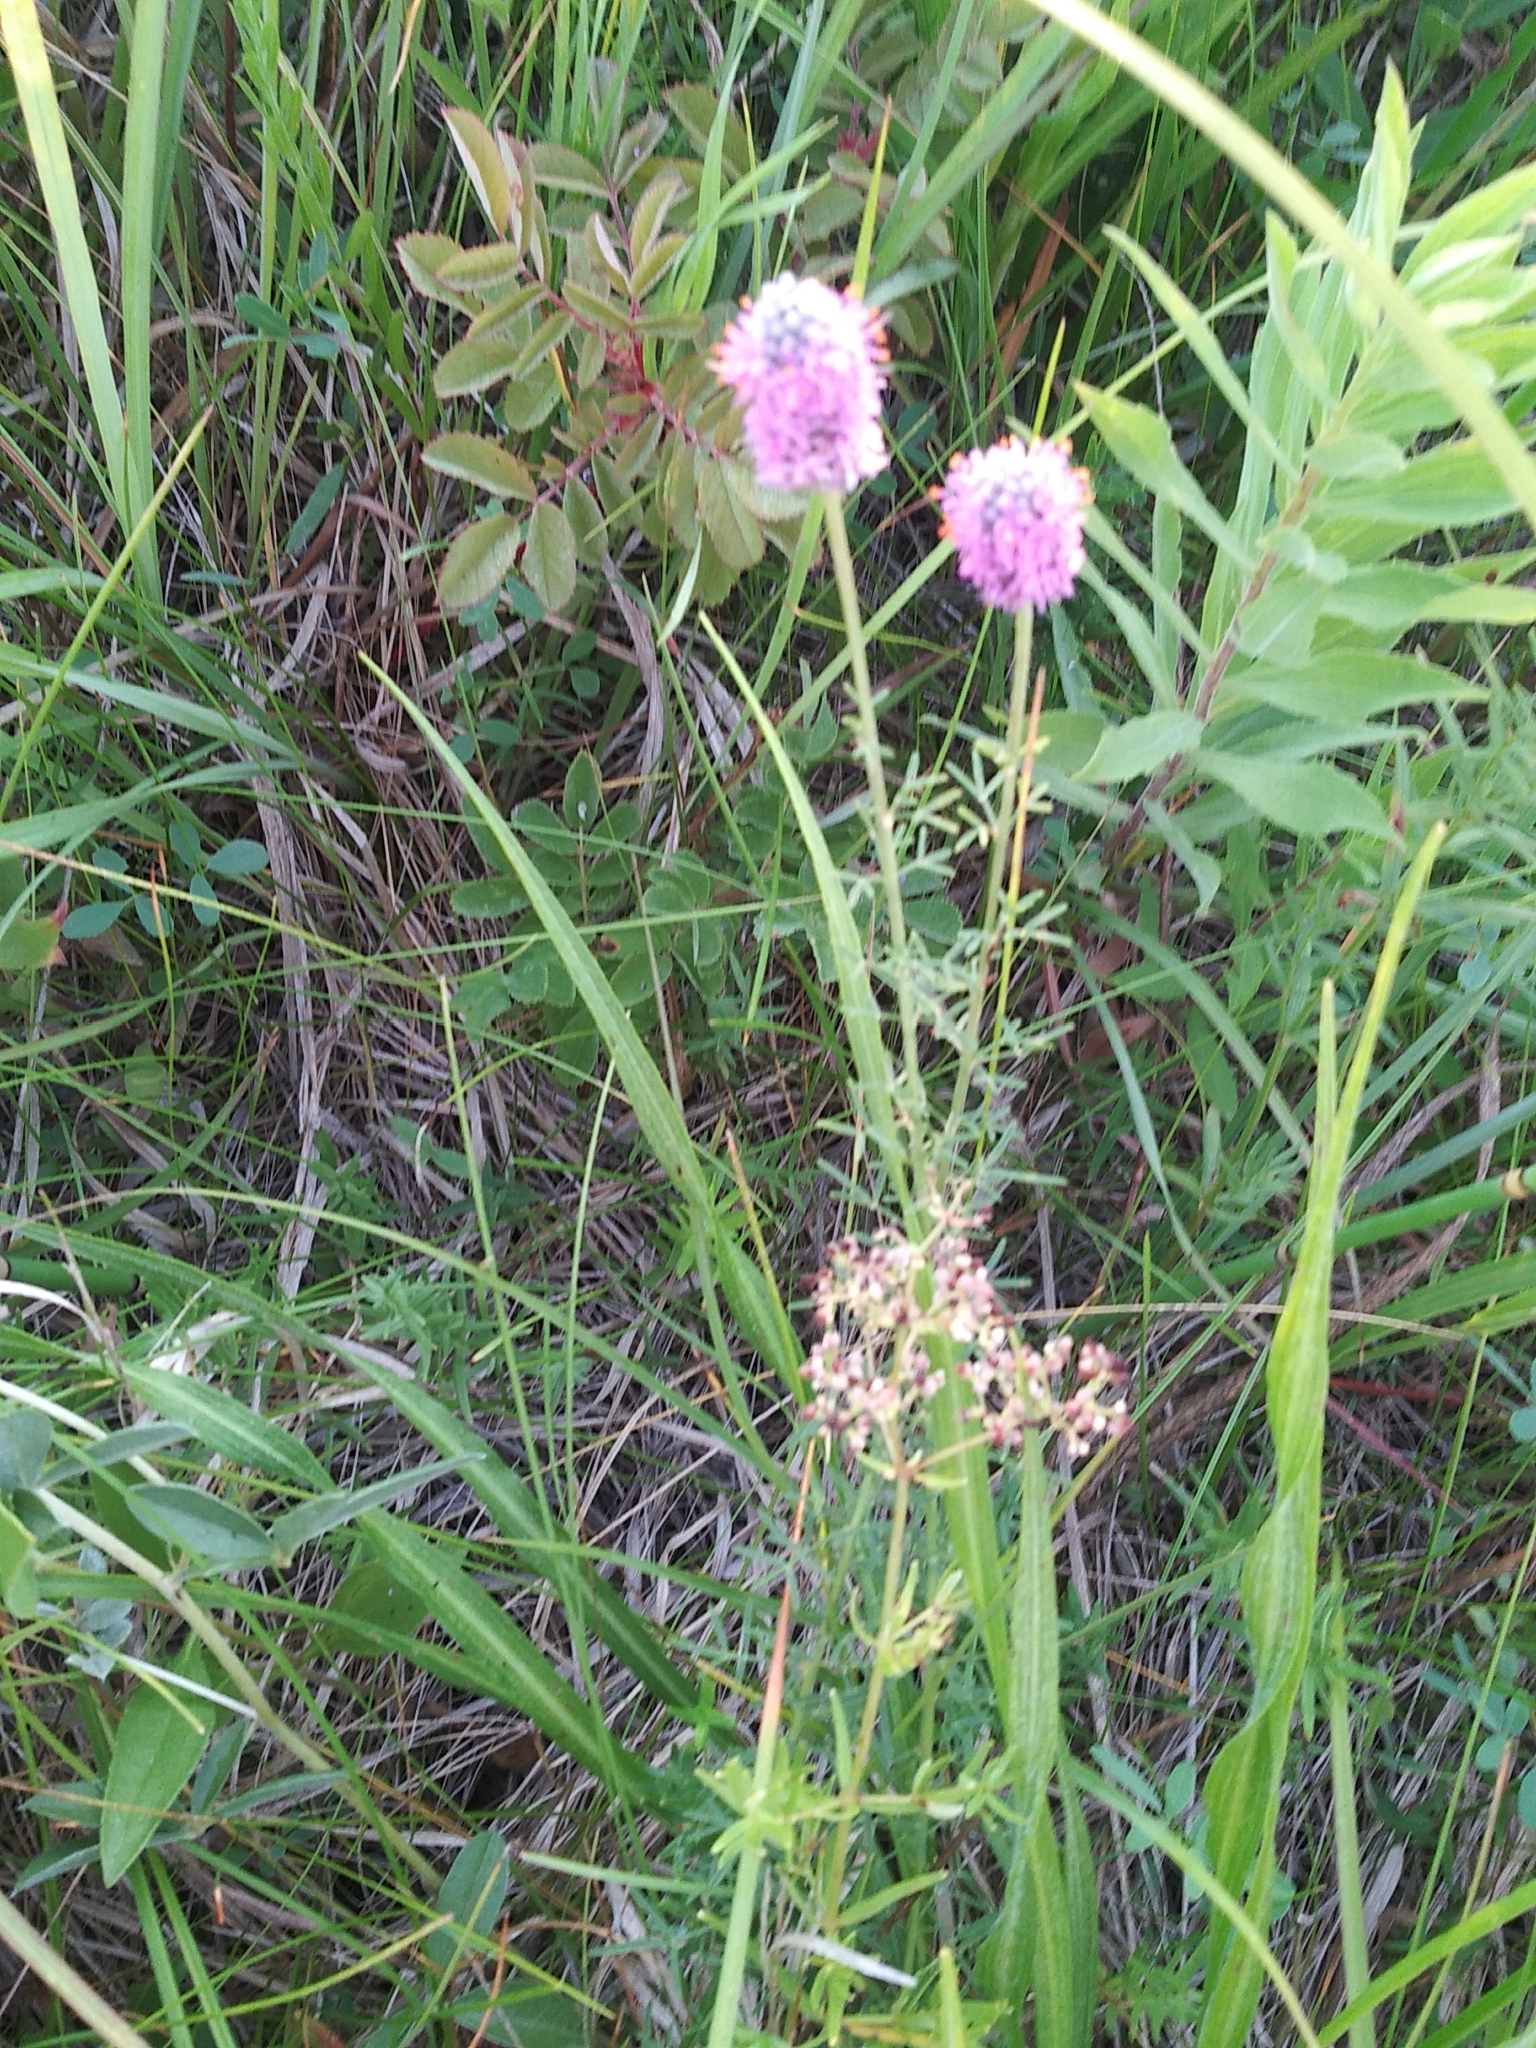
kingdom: Plantae
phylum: Tracheophyta
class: Magnoliopsida
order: Fabales
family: Fabaceae
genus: Dalea
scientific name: Dalea purpurea
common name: Purple prairie-clover
